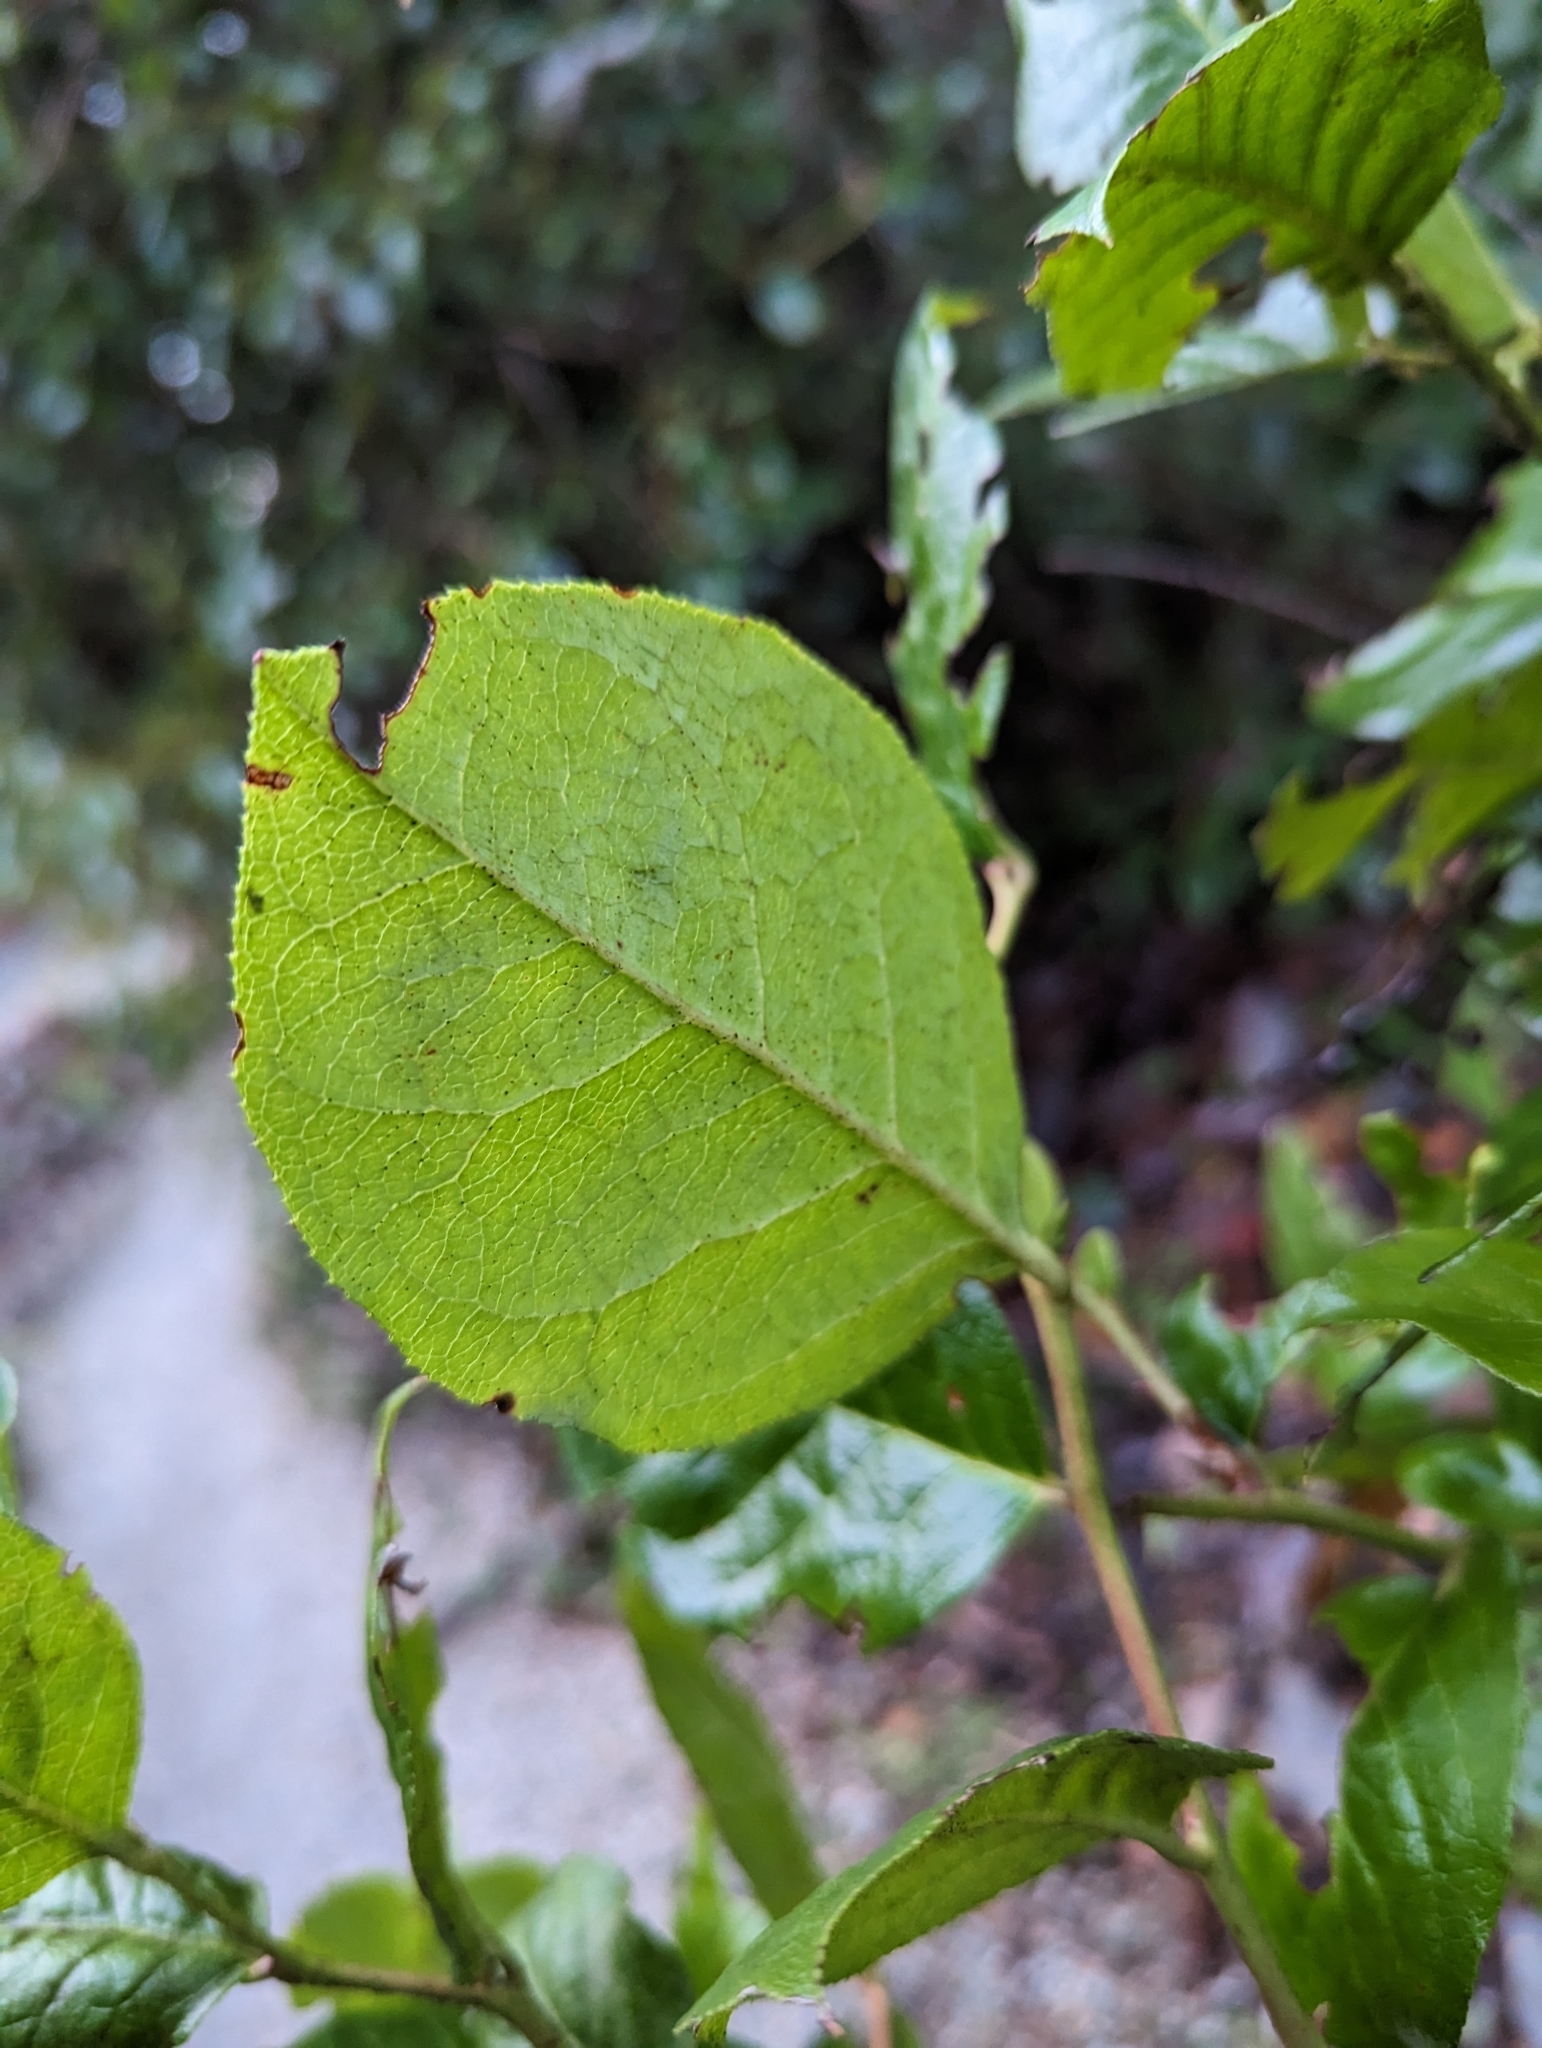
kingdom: Plantae
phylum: Tracheophyta
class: Magnoliopsida
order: Ericales
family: Ericaceae
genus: Gaultheria
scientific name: Gaultheria shallon
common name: Shallon
